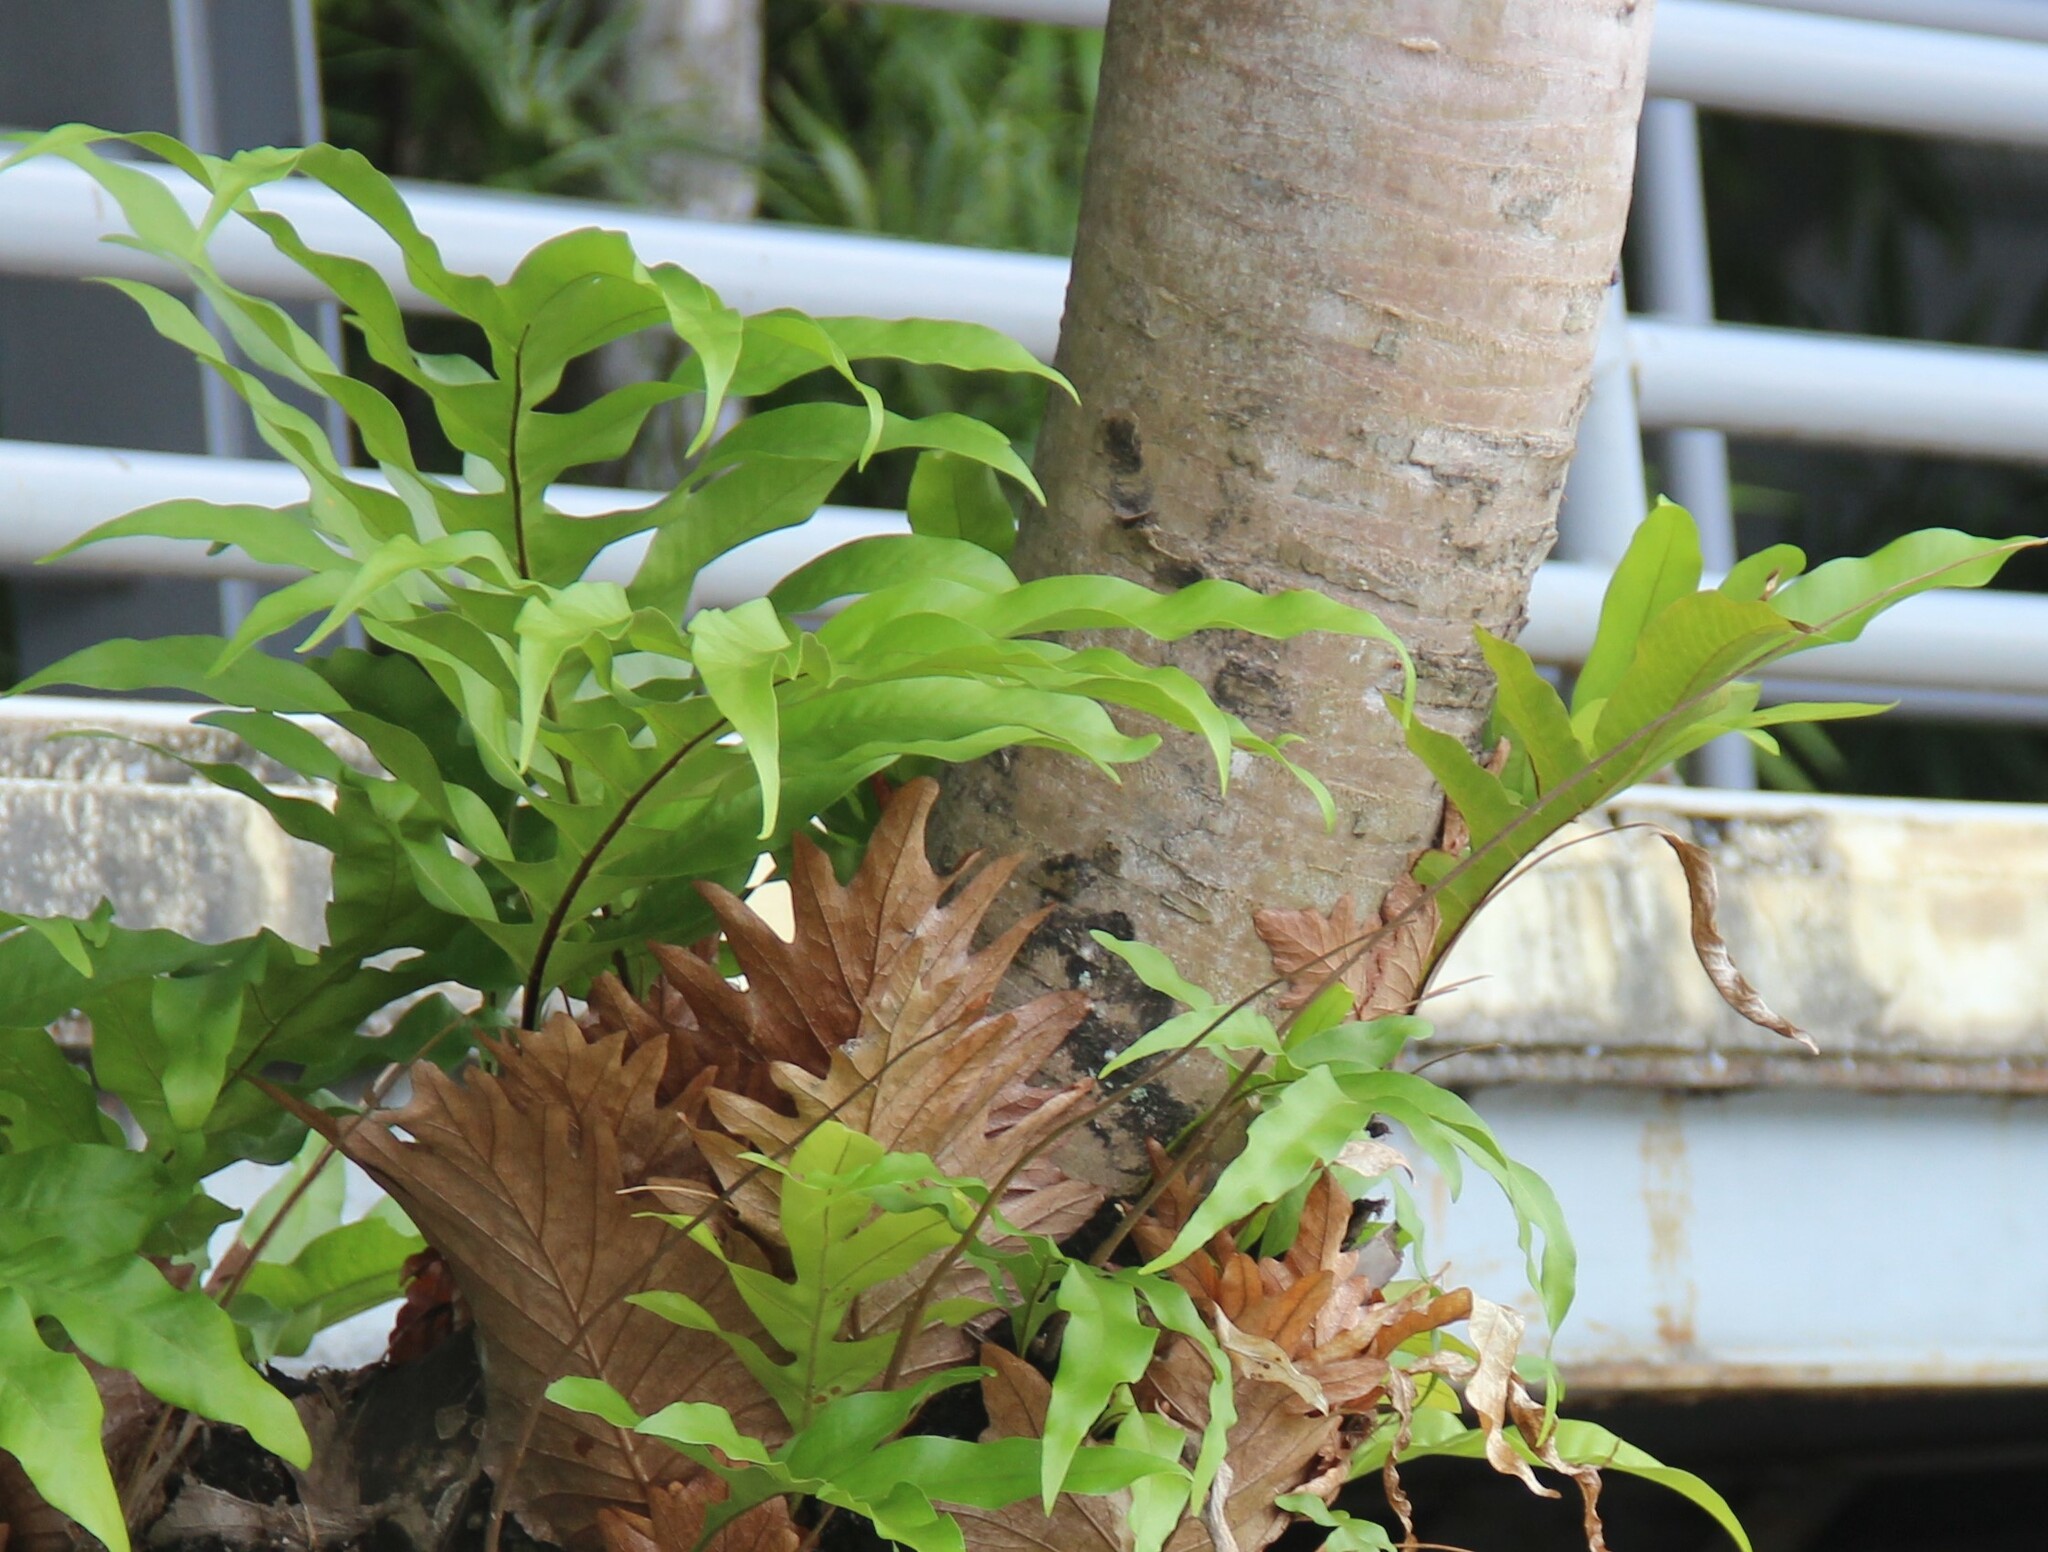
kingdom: Plantae
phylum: Tracheophyta
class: Polypodiopsida
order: Polypodiales
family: Polypodiaceae
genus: Drynaria
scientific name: Drynaria quercifolia
